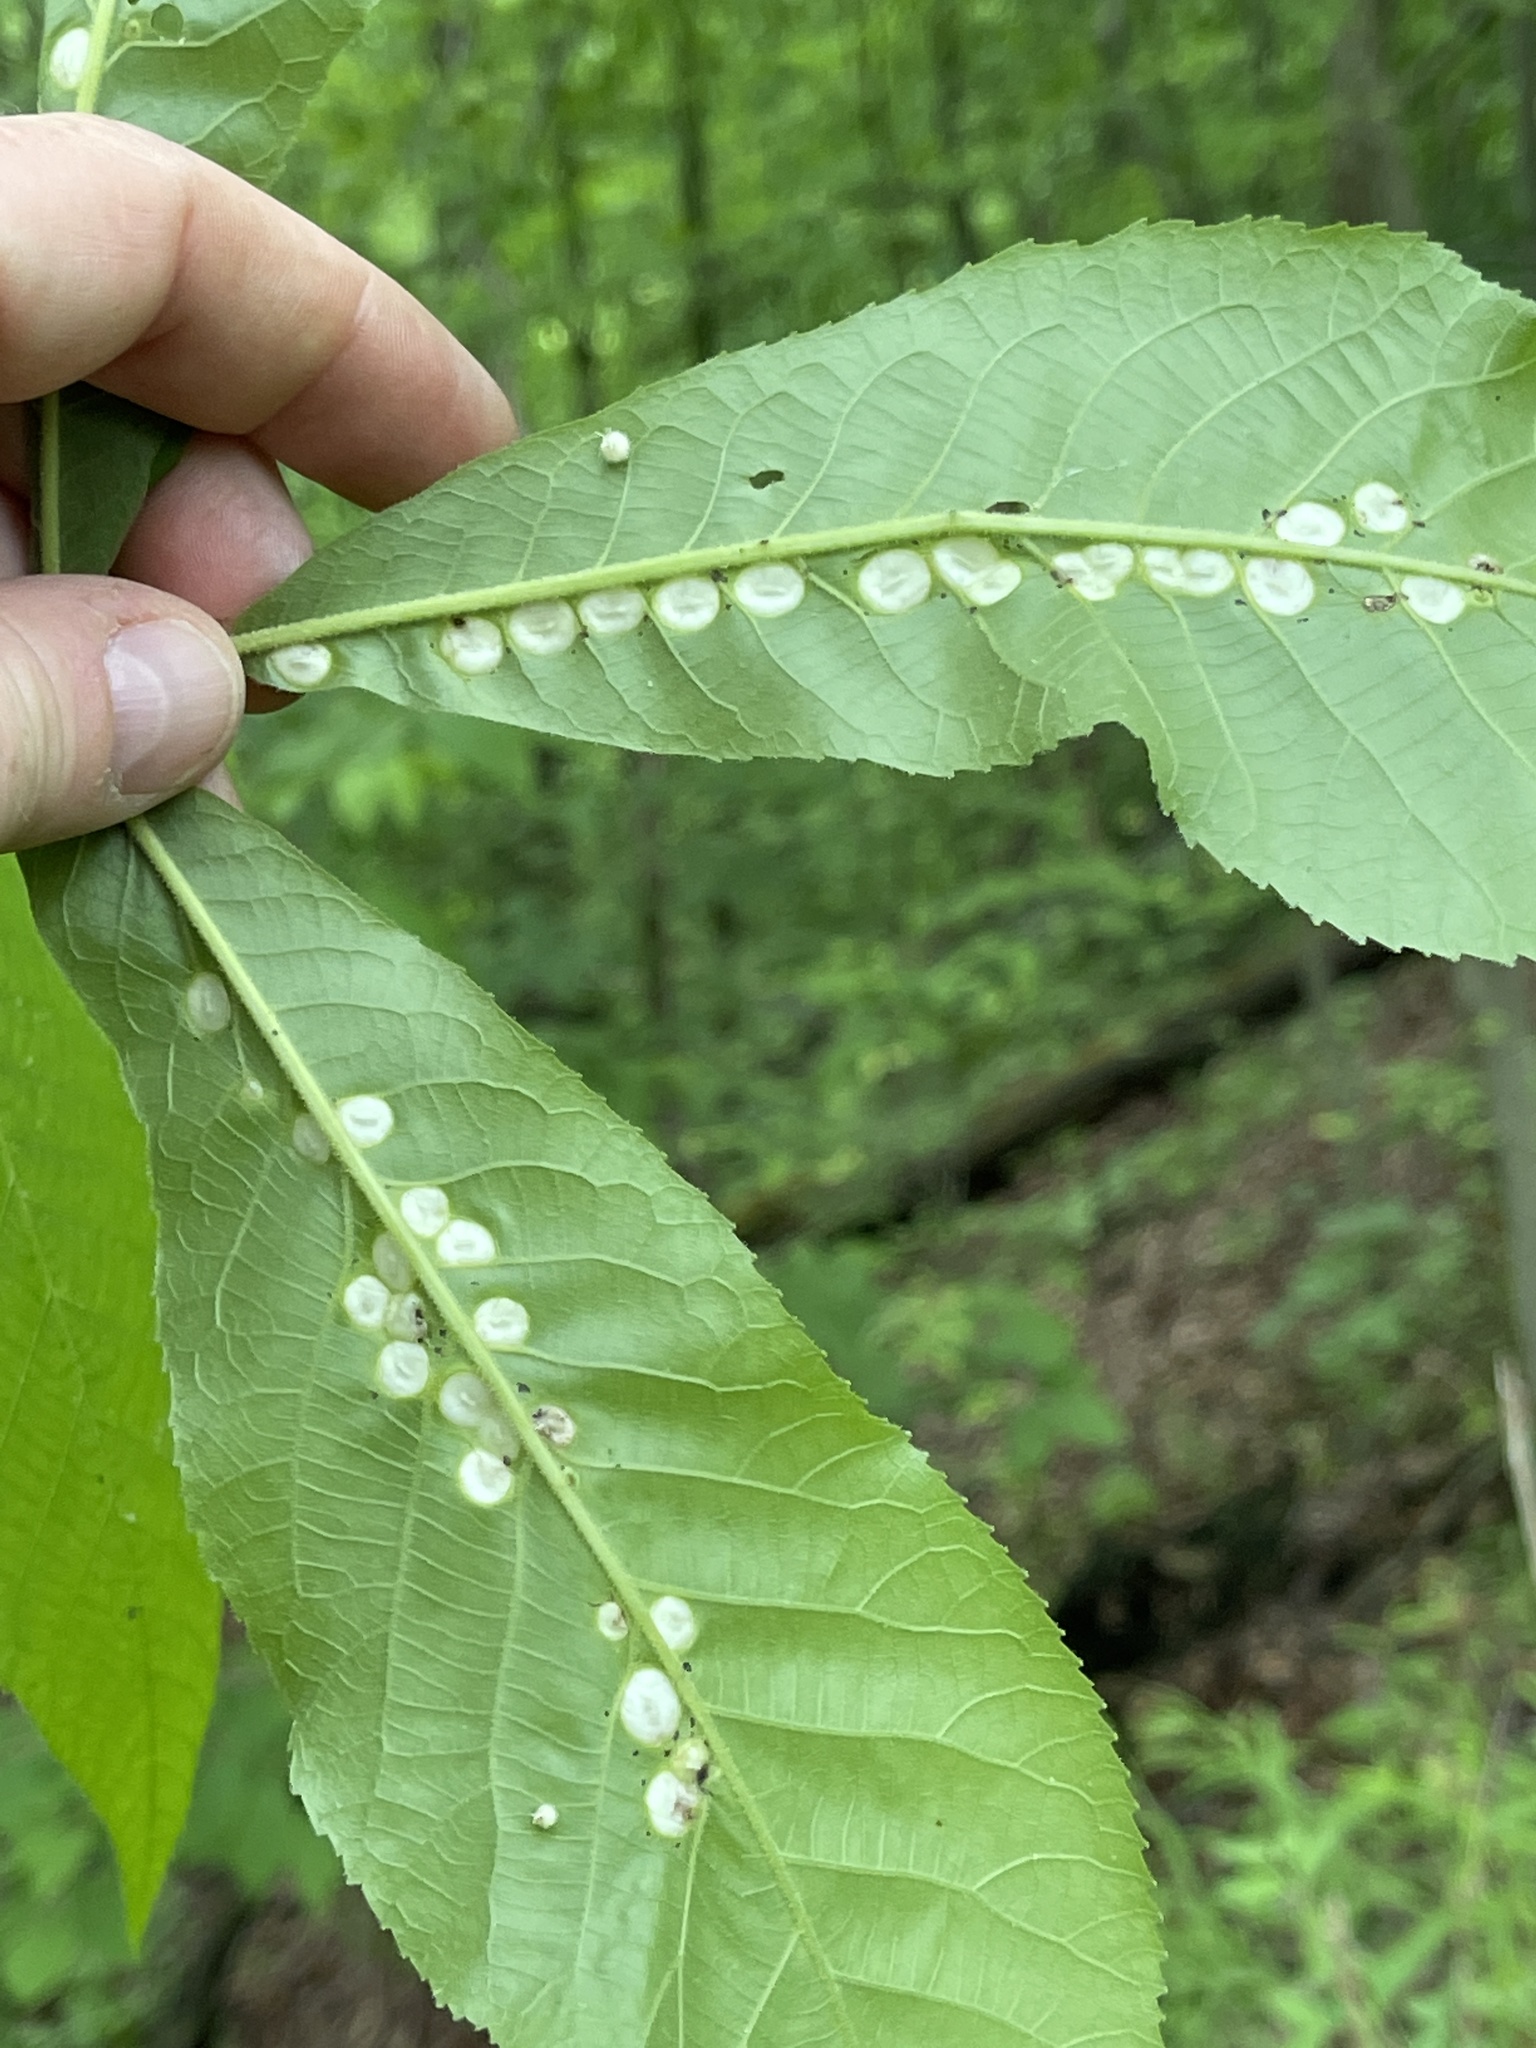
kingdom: Animalia
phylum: Arthropoda
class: Insecta
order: Hemiptera
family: Phylloxeridae
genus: Phylloxera
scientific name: Phylloxera caryae-globuli
